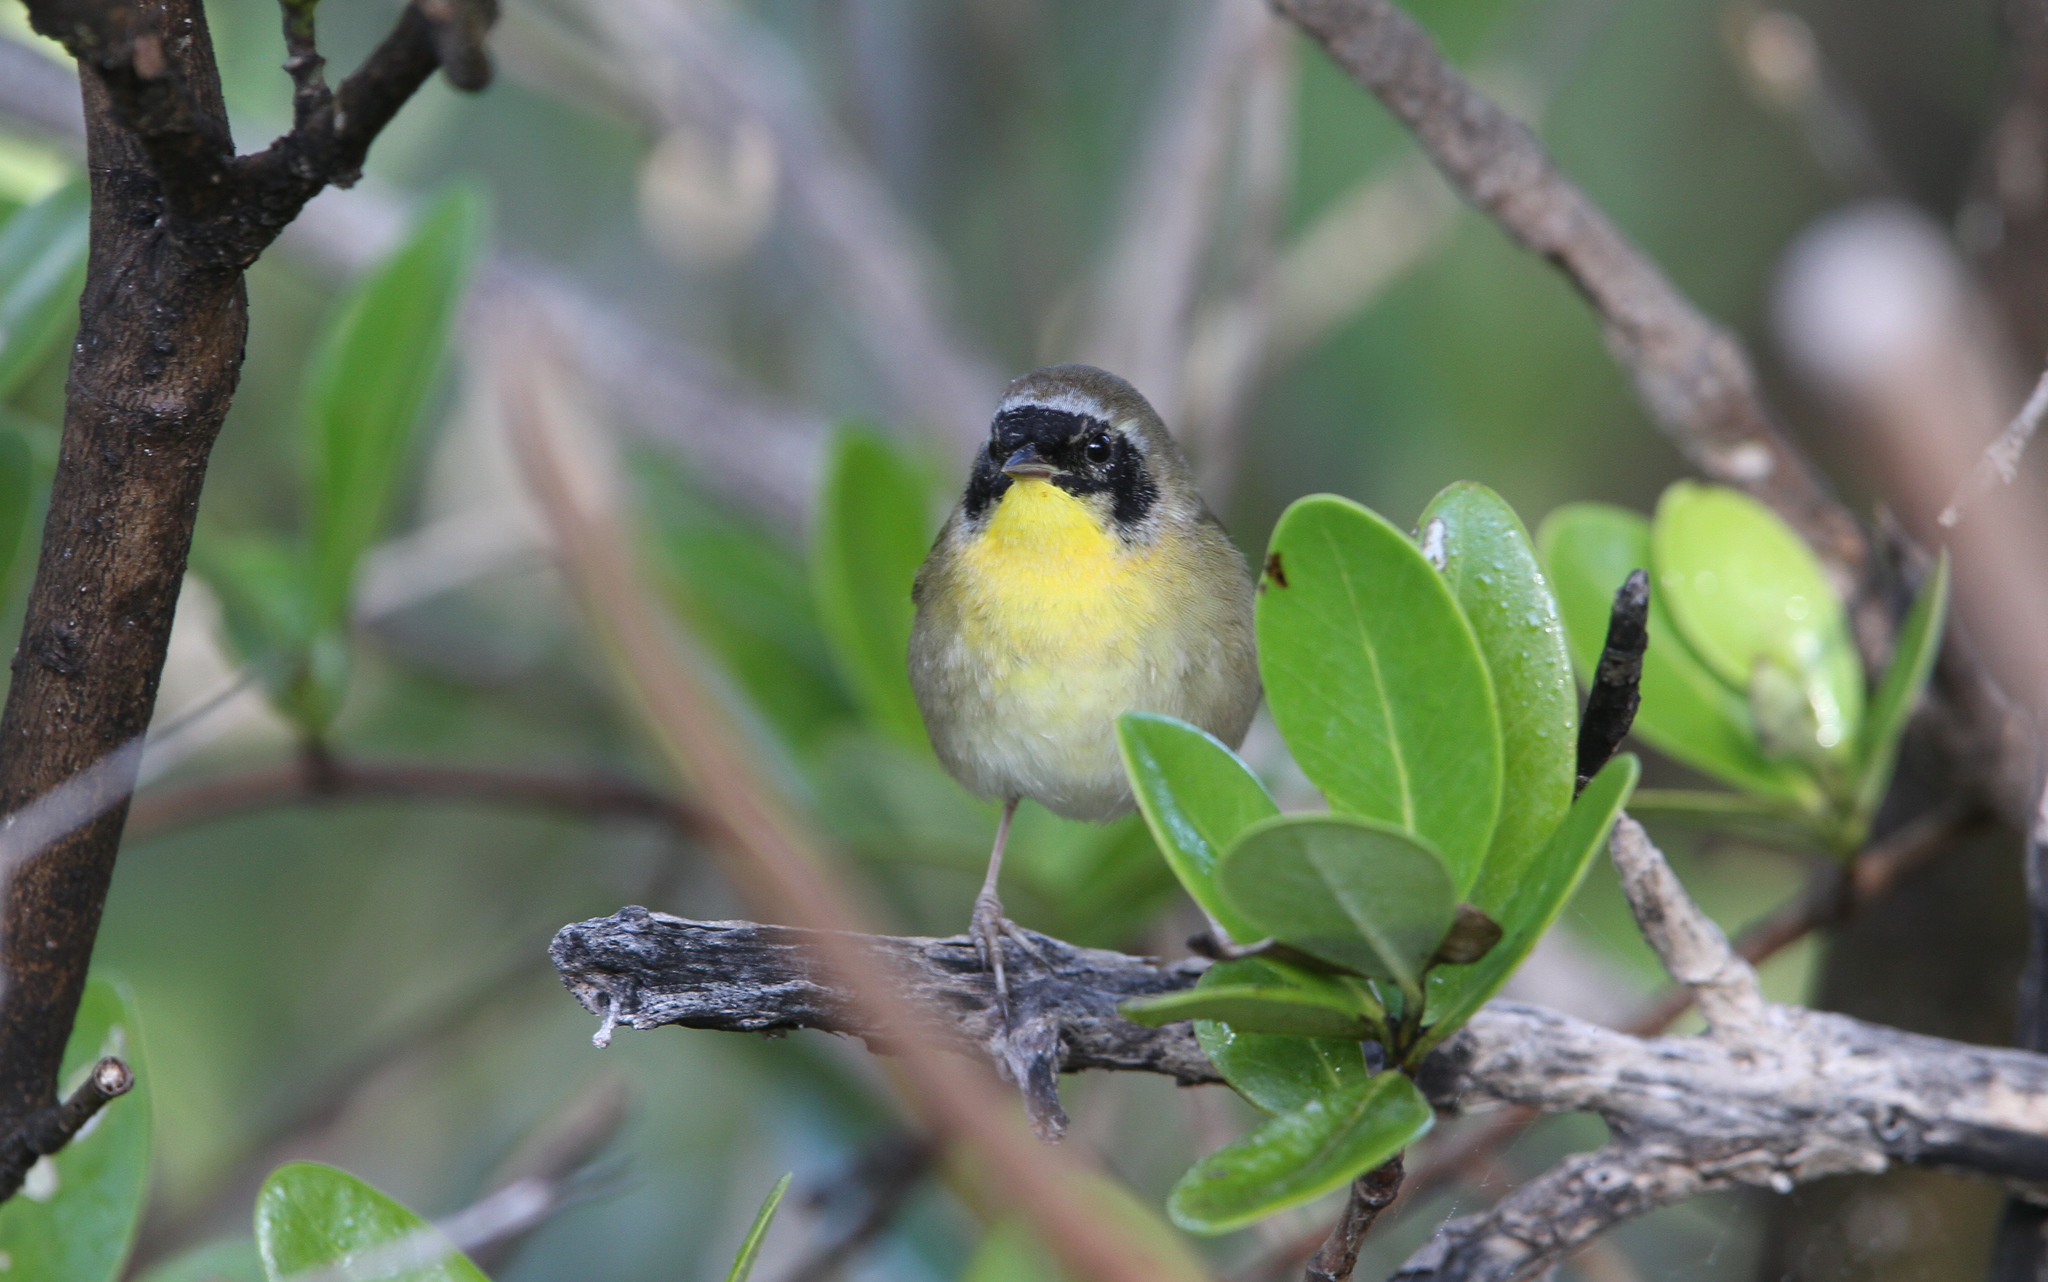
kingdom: Animalia
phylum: Chordata
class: Aves
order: Passeriformes
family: Parulidae
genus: Geothlypis
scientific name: Geothlypis trichas
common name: Common yellowthroat
